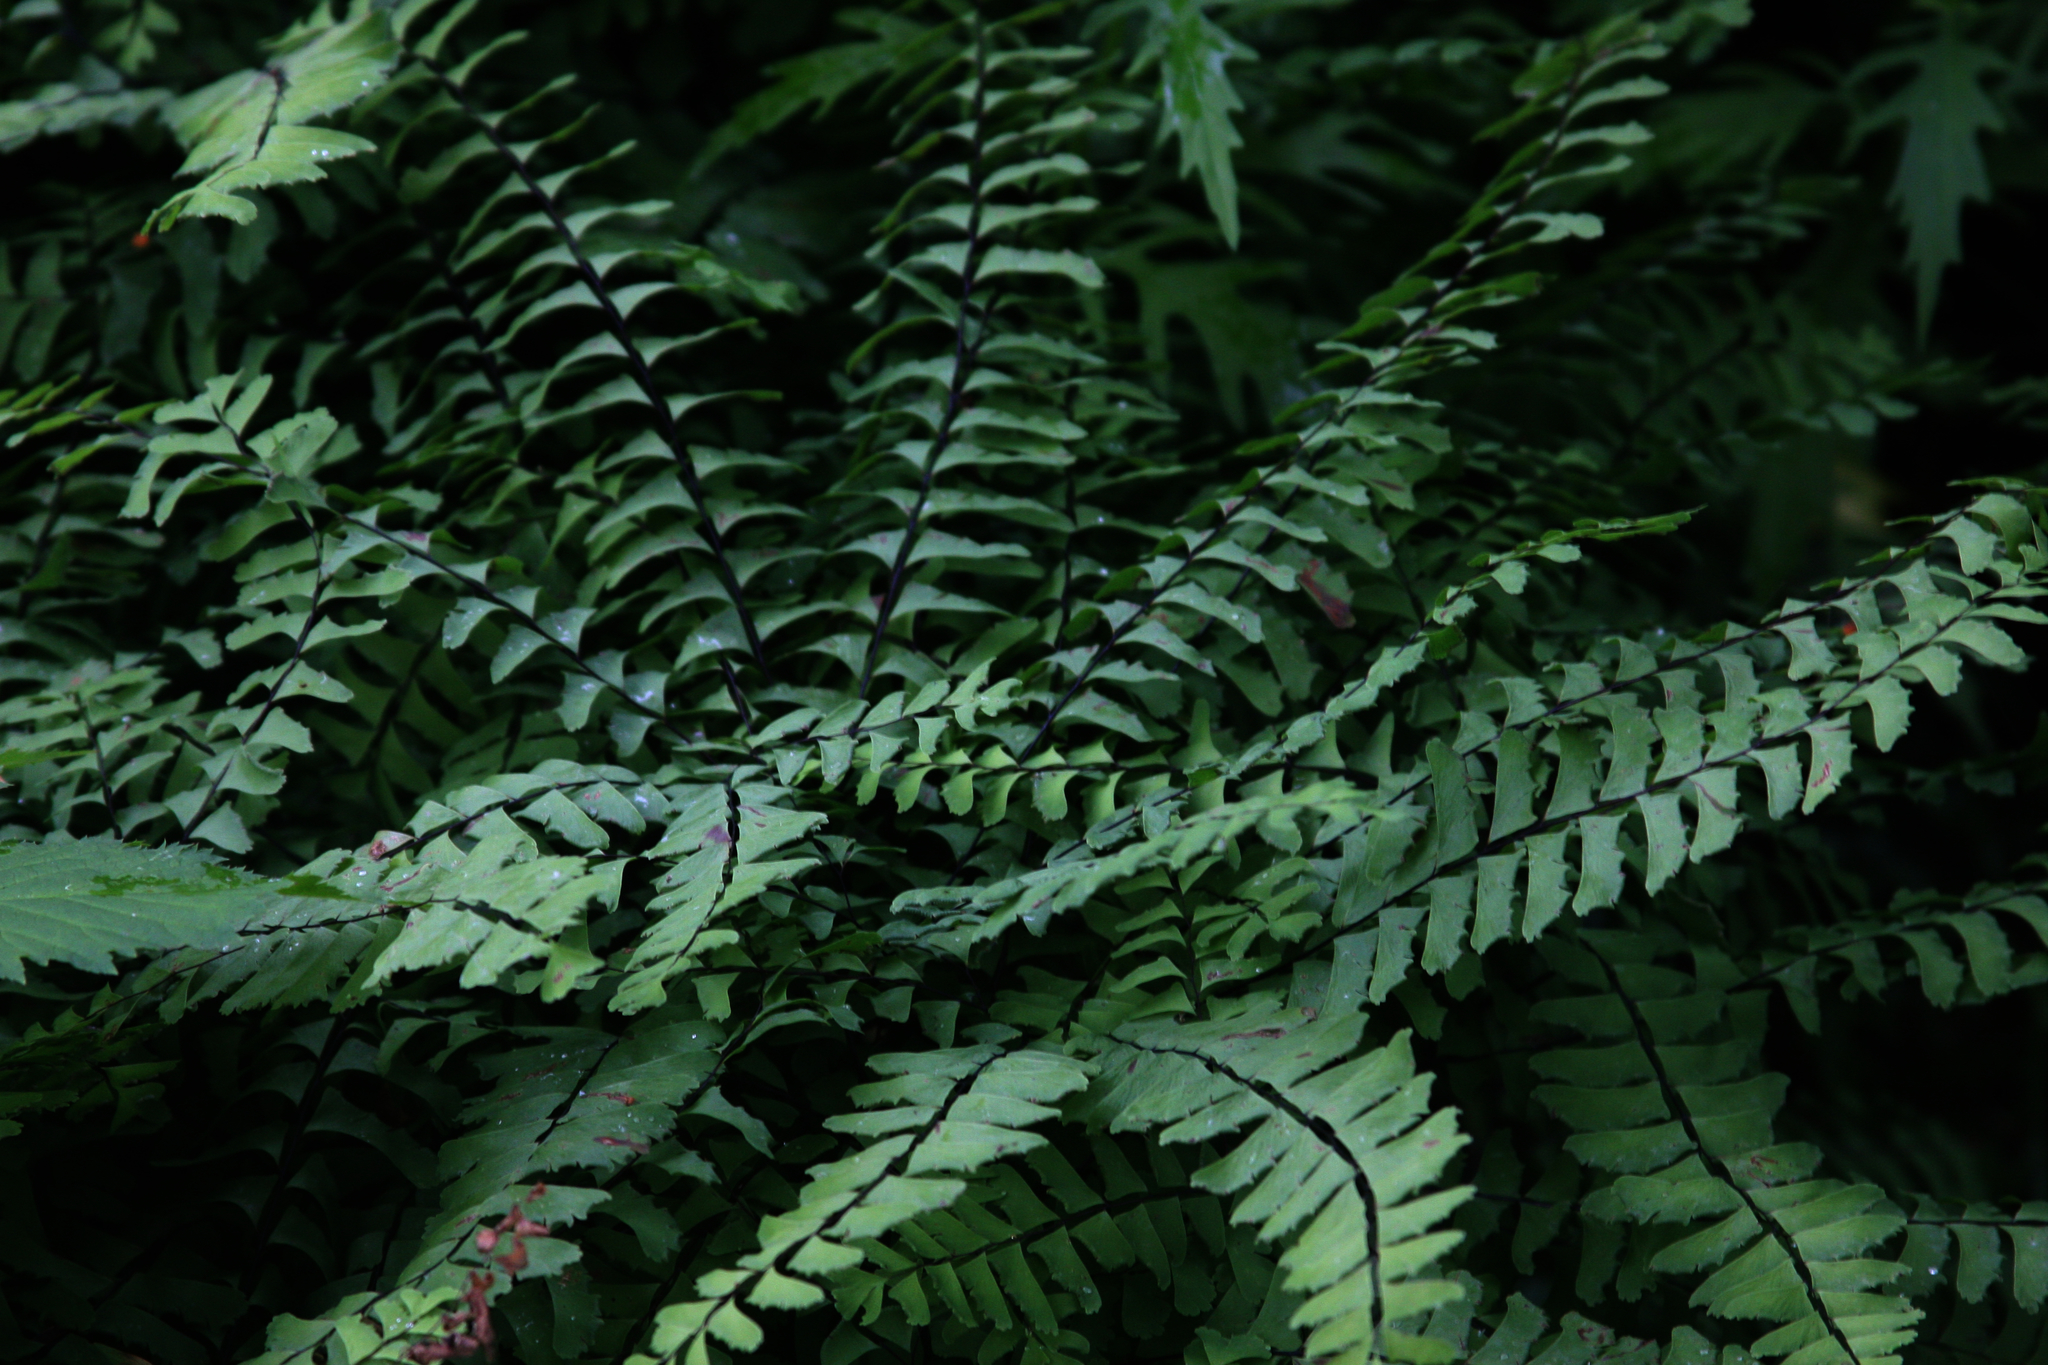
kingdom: Plantae
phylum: Tracheophyta
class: Polypodiopsida
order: Polypodiales
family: Pteridaceae
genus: Adiantum
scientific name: Adiantum pedatum
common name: Five-finger fern
